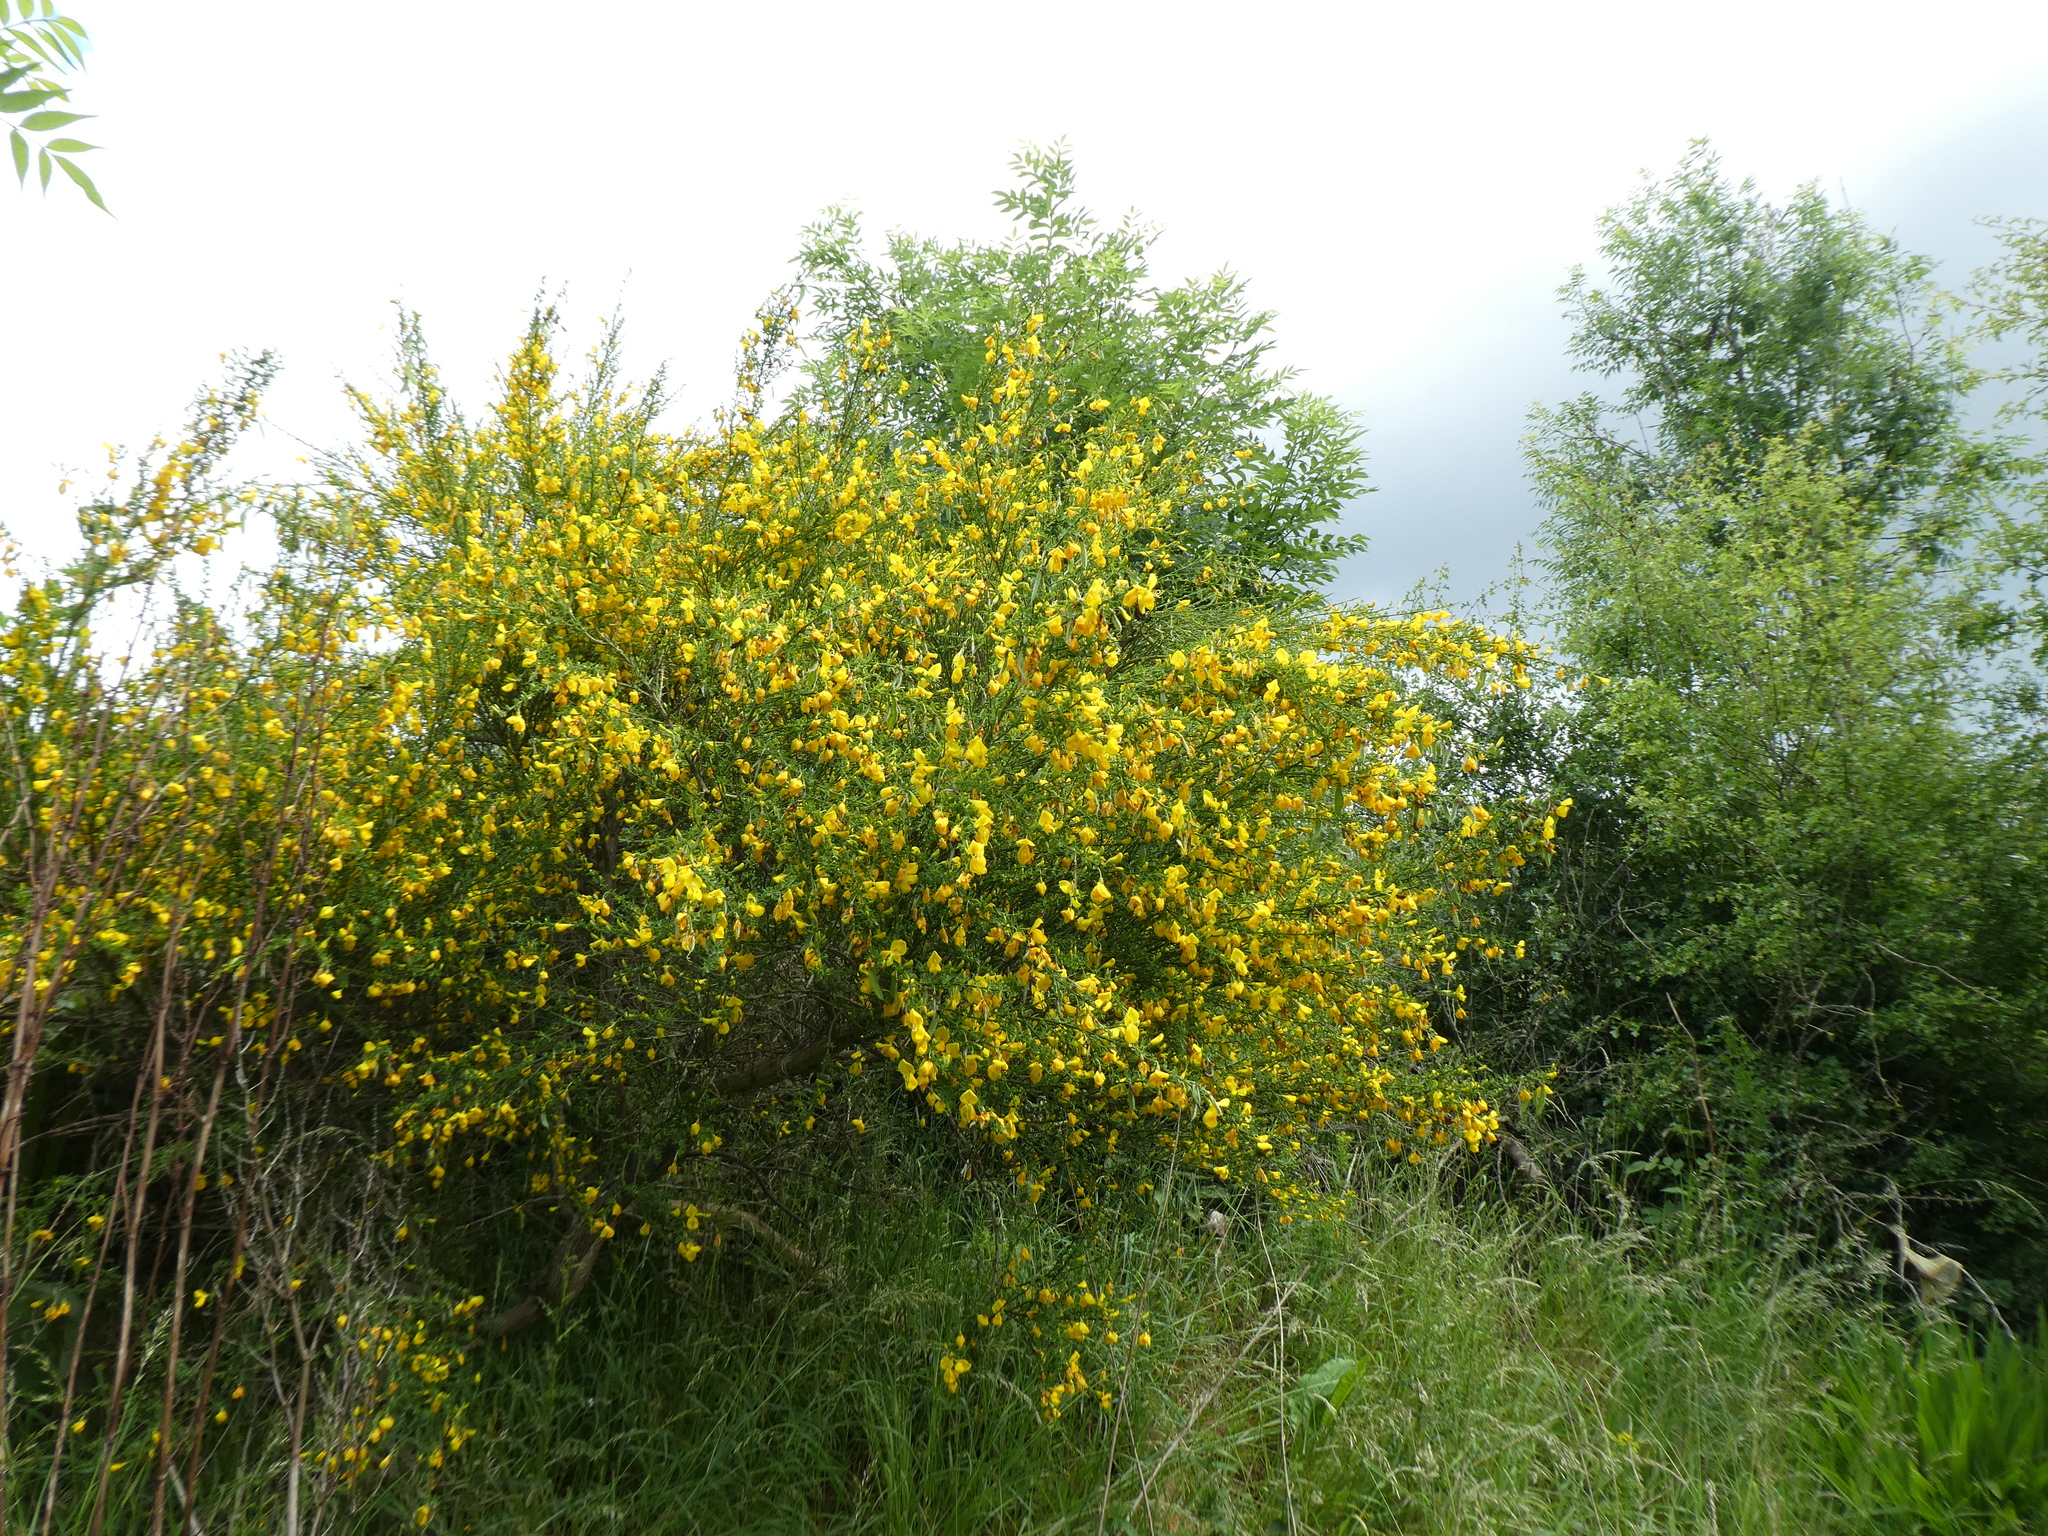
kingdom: Plantae
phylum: Tracheophyta
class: Magnoliopsida
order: Fabales
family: Fabaceae
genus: Cytisus
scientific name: Cytisus scoparius
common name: Scotch broom
